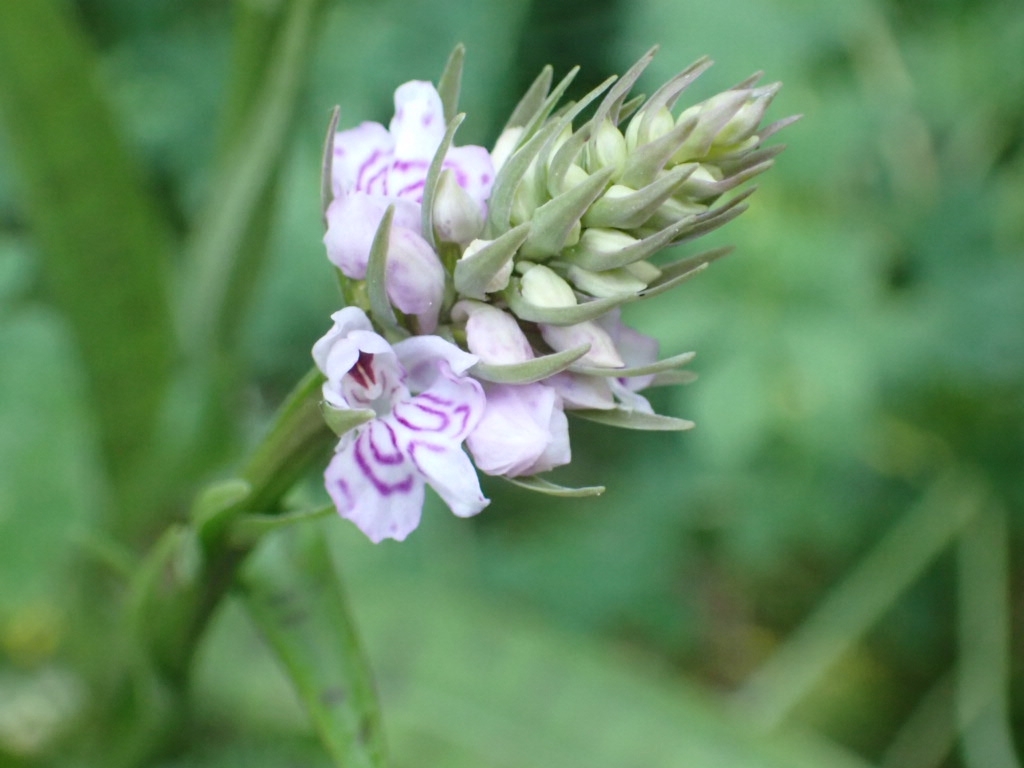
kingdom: Plantae
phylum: Tracheophyta
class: Liliopsida
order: Asparagales
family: Orchidaceae
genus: Dactylorhiza
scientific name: Dactylorhiza maculata
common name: Heath spotted-orchid
